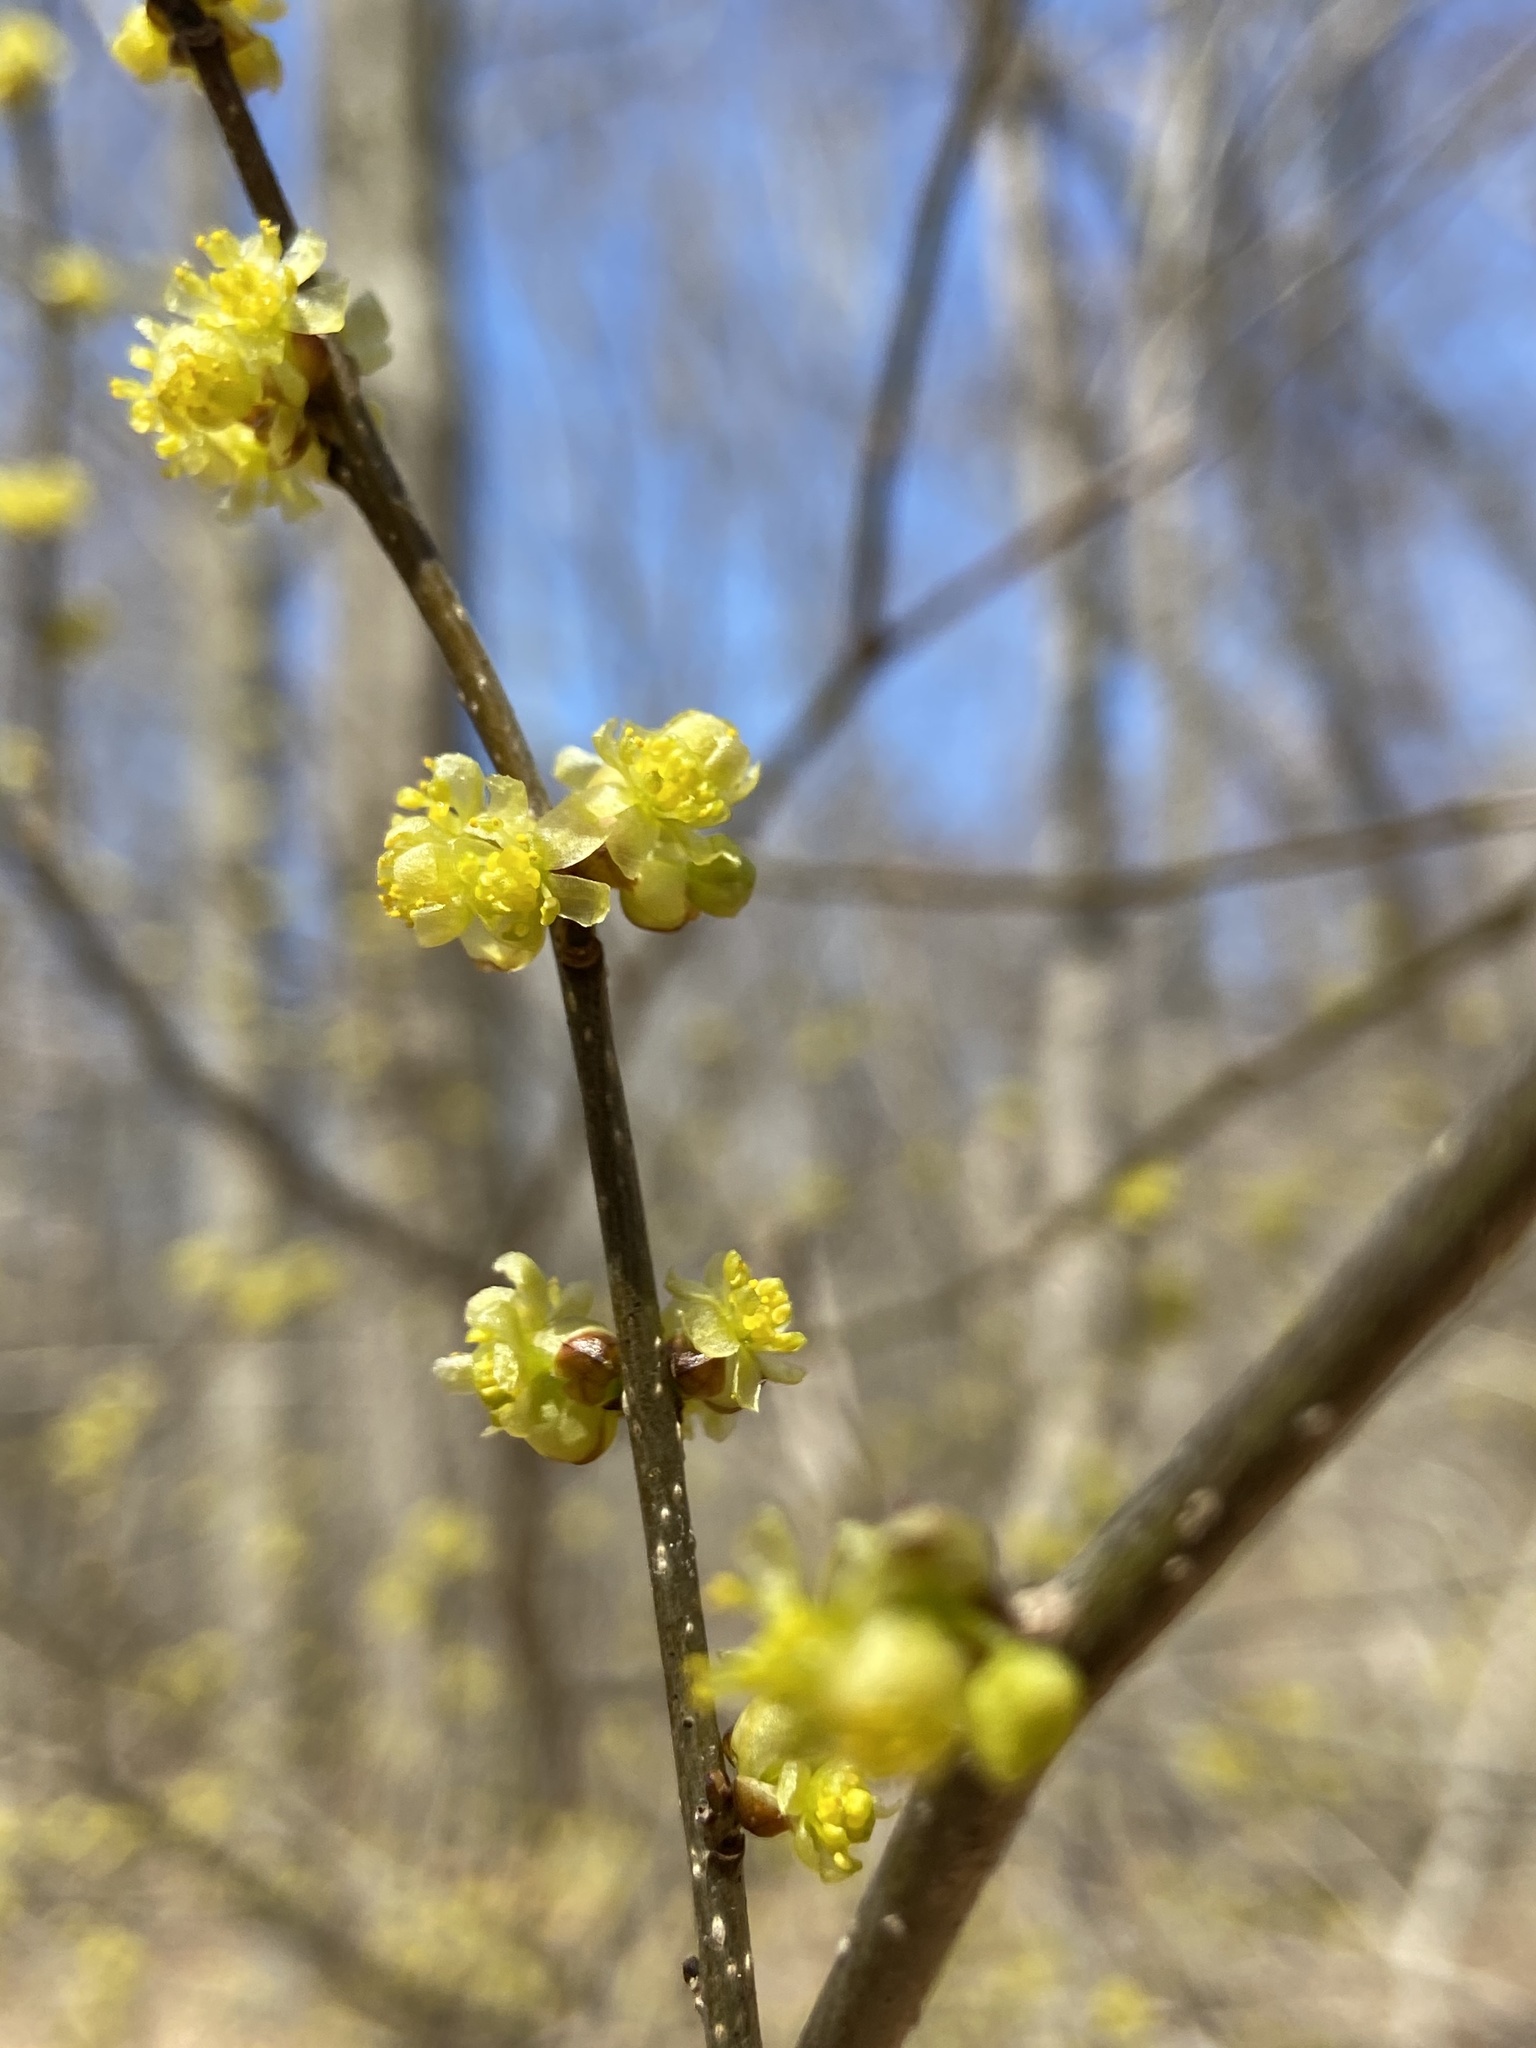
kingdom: Plantae
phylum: Tracheophyta
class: Magnoliopsida
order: Laurales
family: Lauraceae
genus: Lindera
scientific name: Lindera benzoin
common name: Spicebush
